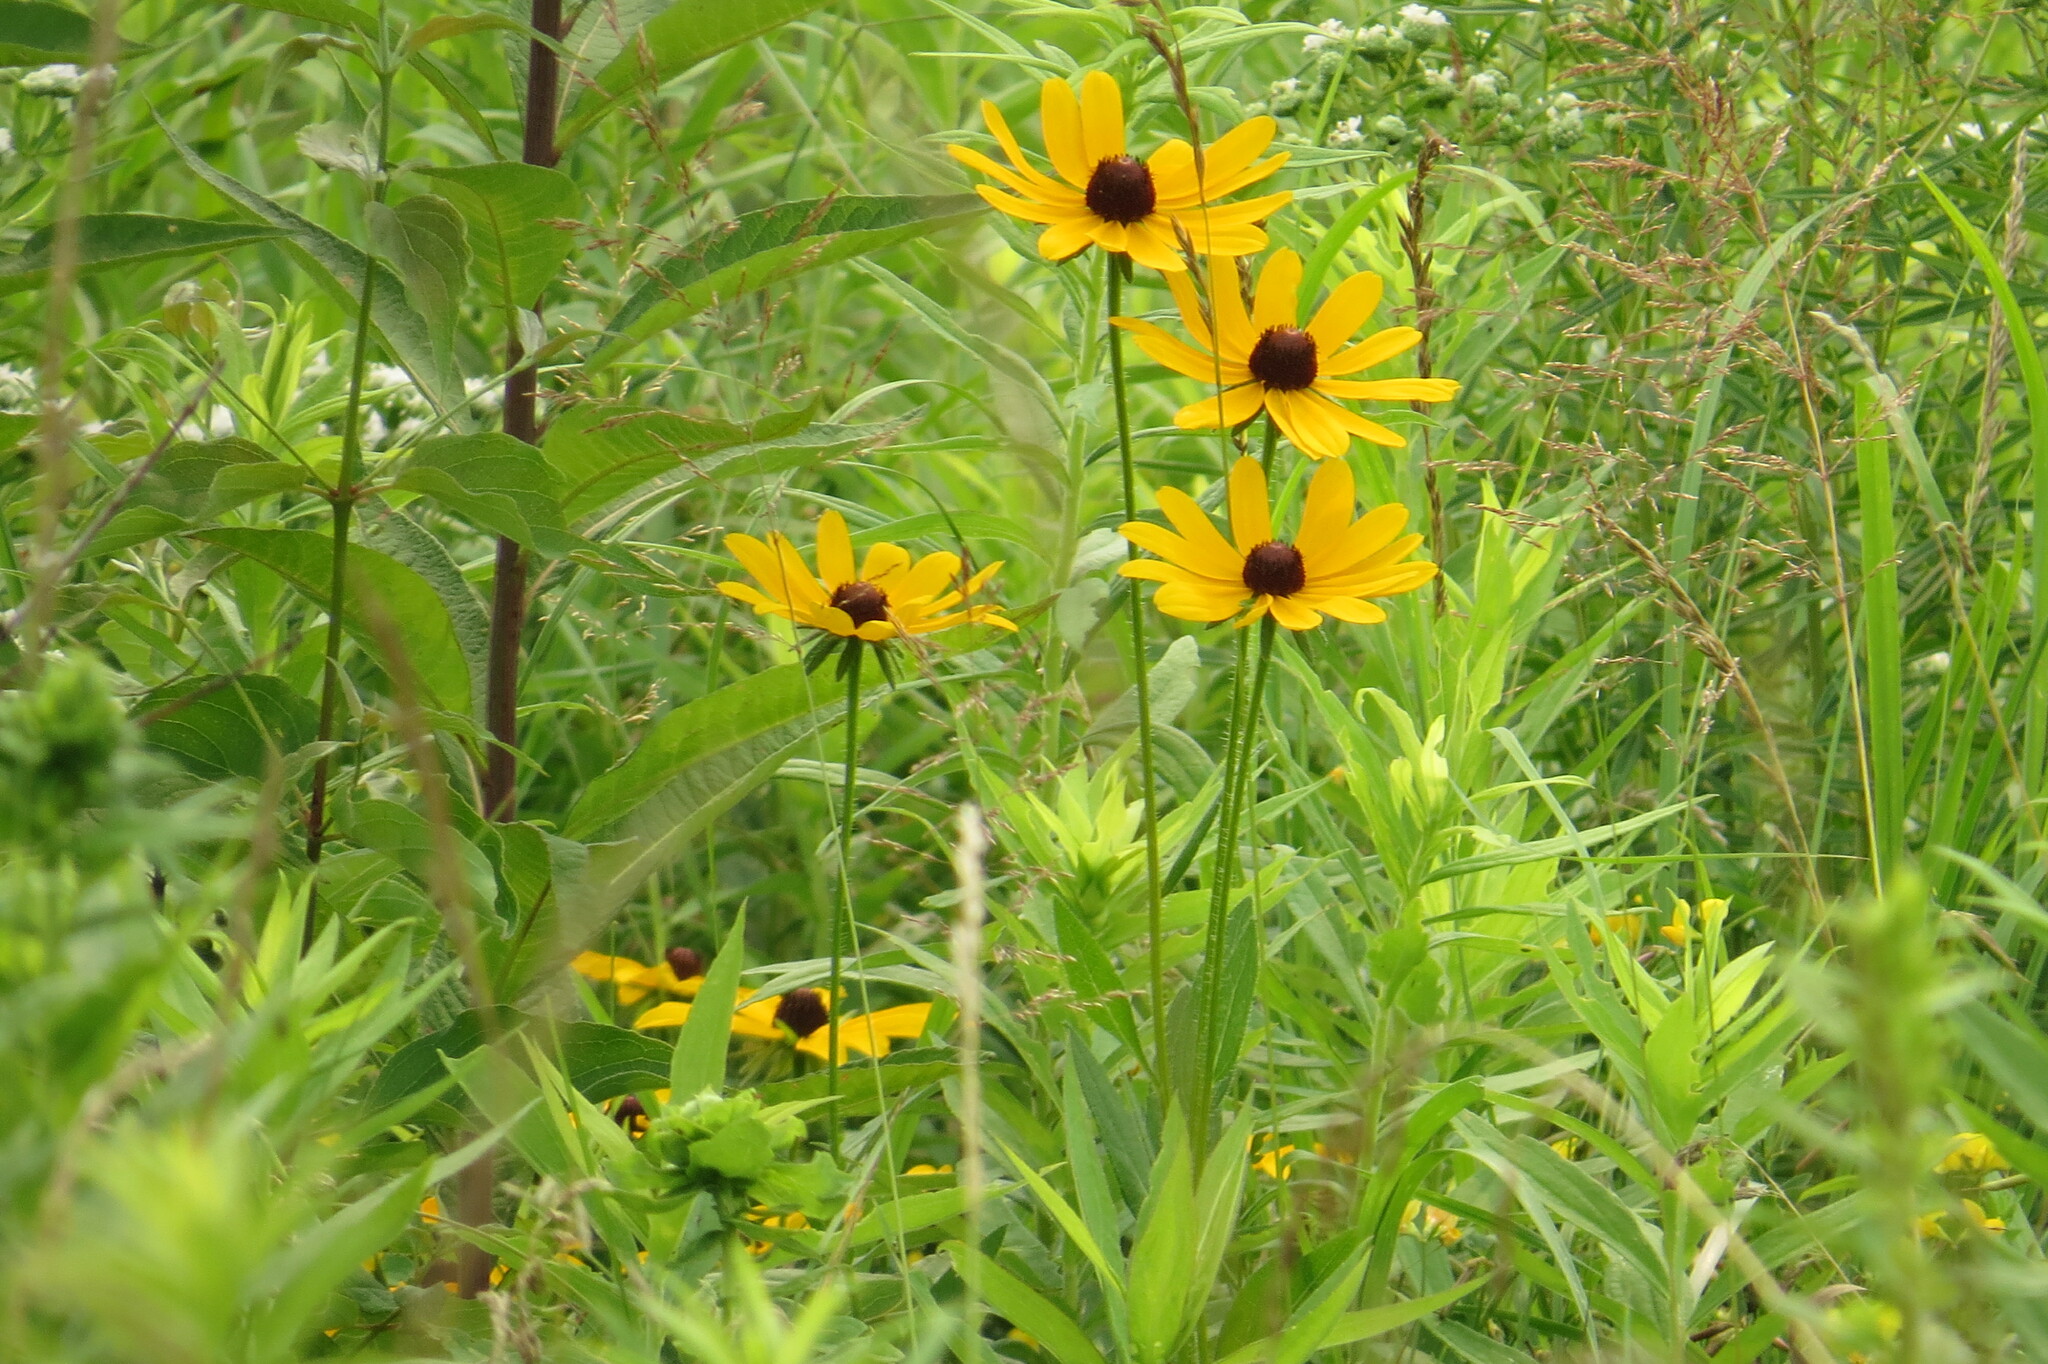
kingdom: Plantae
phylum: Tracheophyta
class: Magnoliopsida
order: Asterales
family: Asteraceae
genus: Rudbeckia
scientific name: Rudbeckia hirta
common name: Black-eyed-susan
